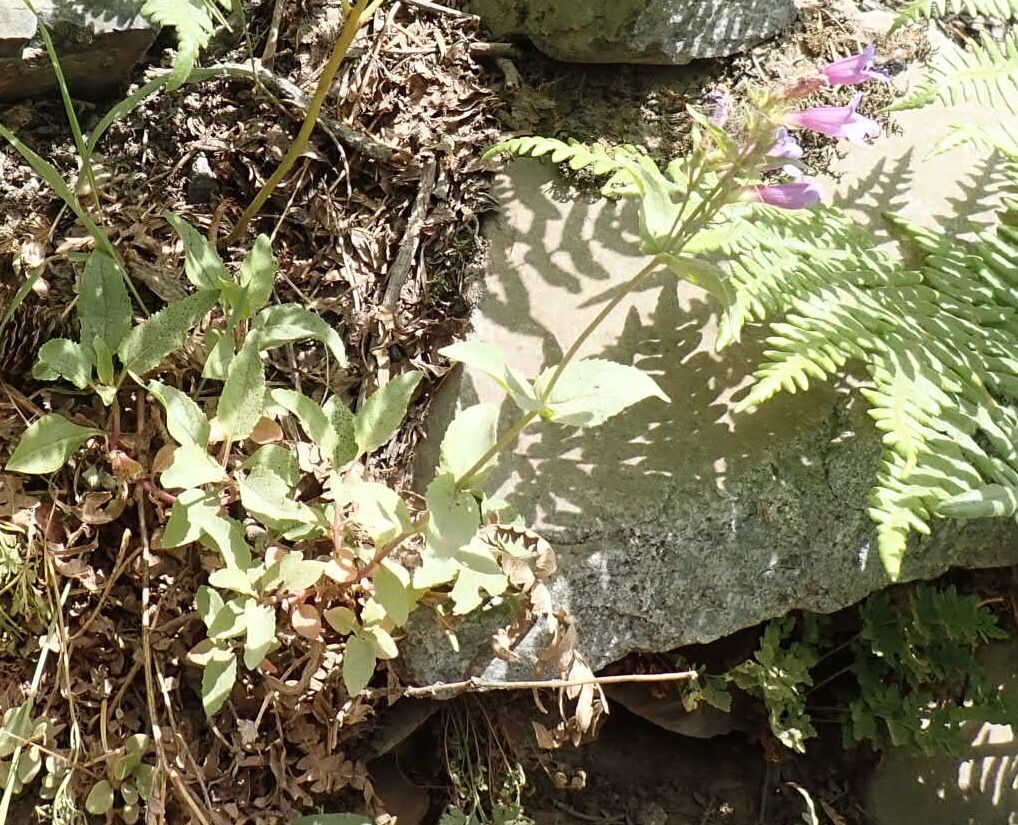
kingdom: Plantae
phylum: Tracheophyta
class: Magnoliopsida
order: Lamiales
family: Plantaginaceae
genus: Nothochelone
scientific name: Nothochelone nemorosa
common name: Woodland beardtongue
